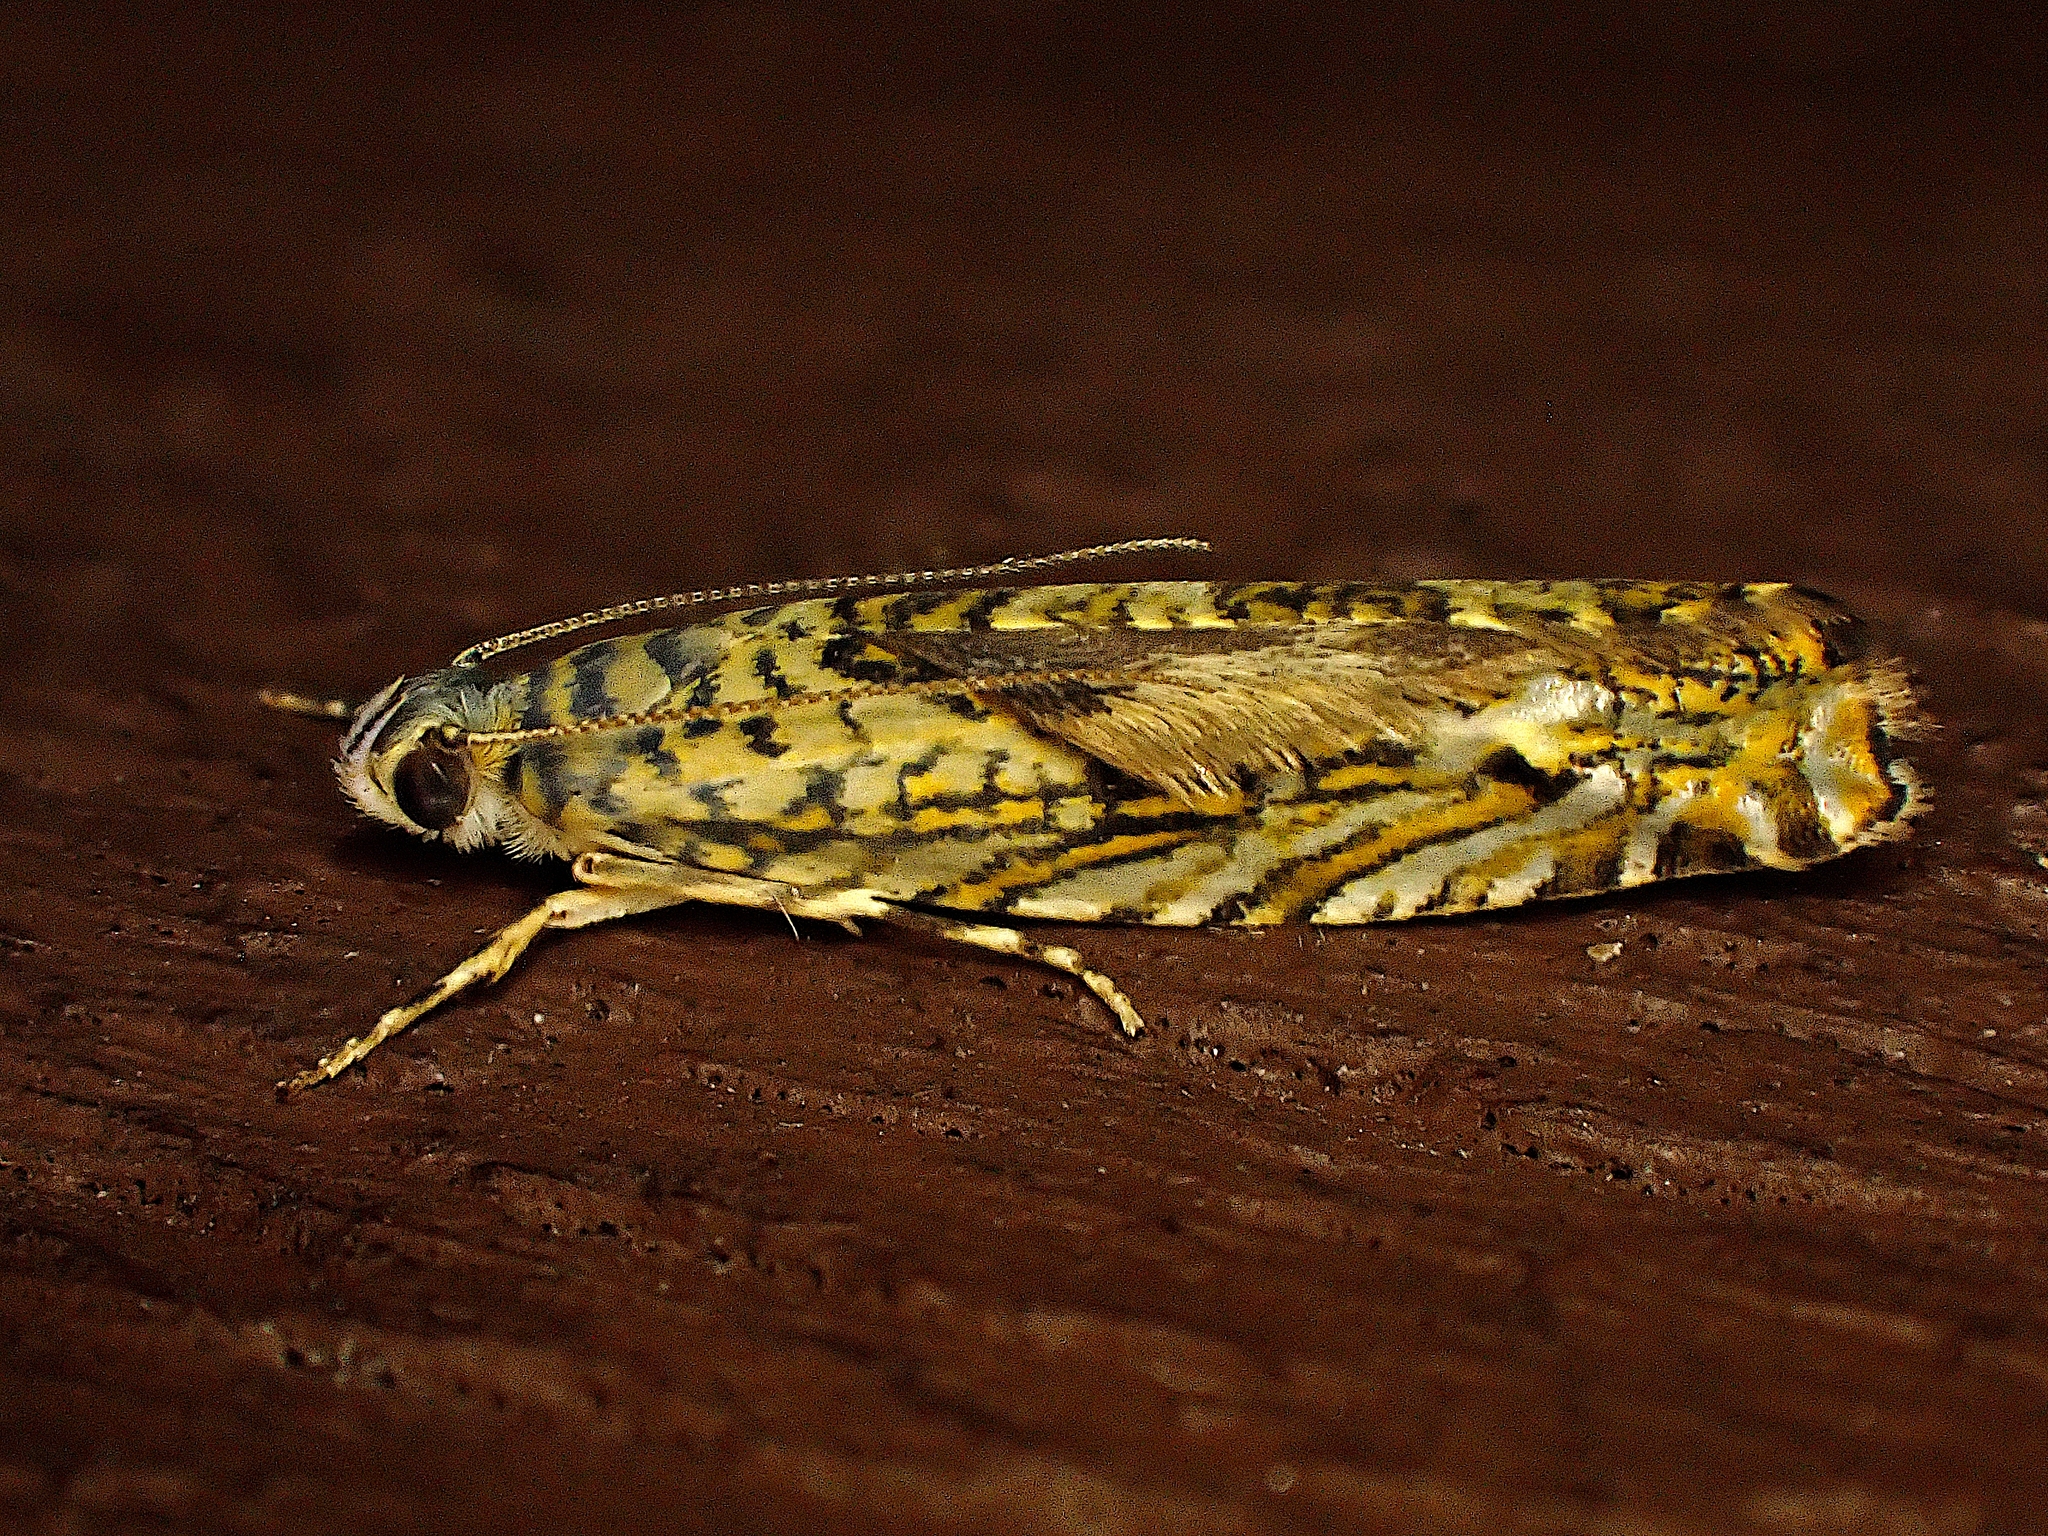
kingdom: Animalia
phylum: Arthropoda
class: Insecta
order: Lepidoptera
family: Plutellidae
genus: Doxophyrtis
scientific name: Doxophyrtis hydrocosma
